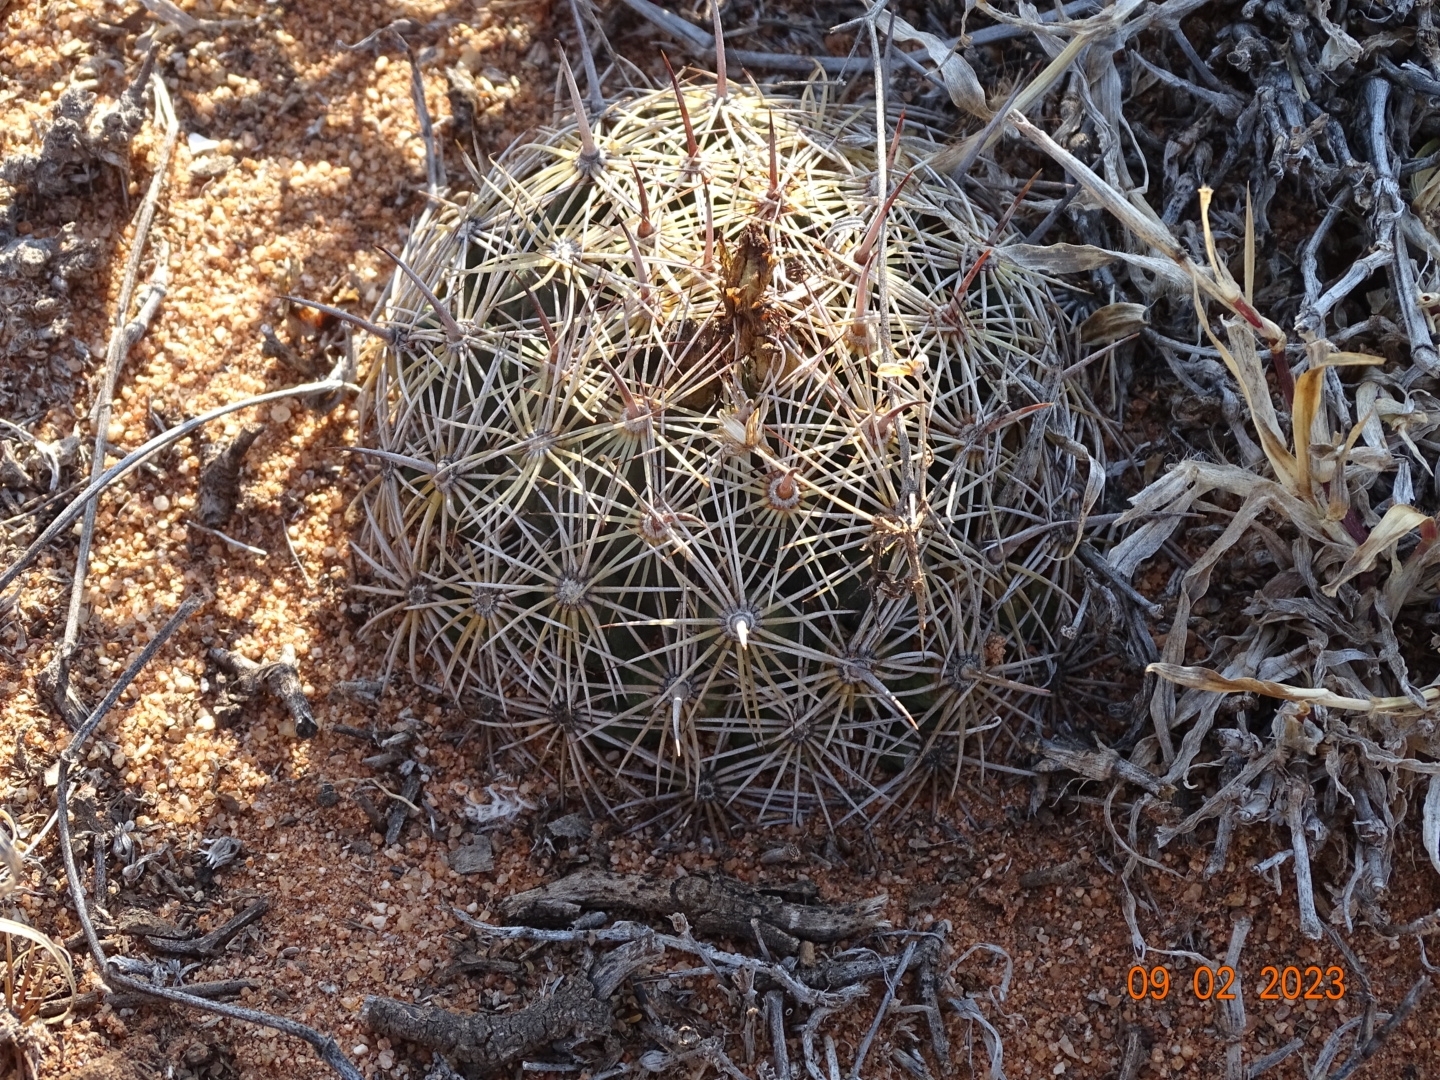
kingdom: Plantae
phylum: Tracheophyta
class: Magnoliopsida
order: Caryophyllales
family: Cactaceae
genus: Coryphantha
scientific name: Coryphantha cornifera
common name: Rhinoceros cactus
